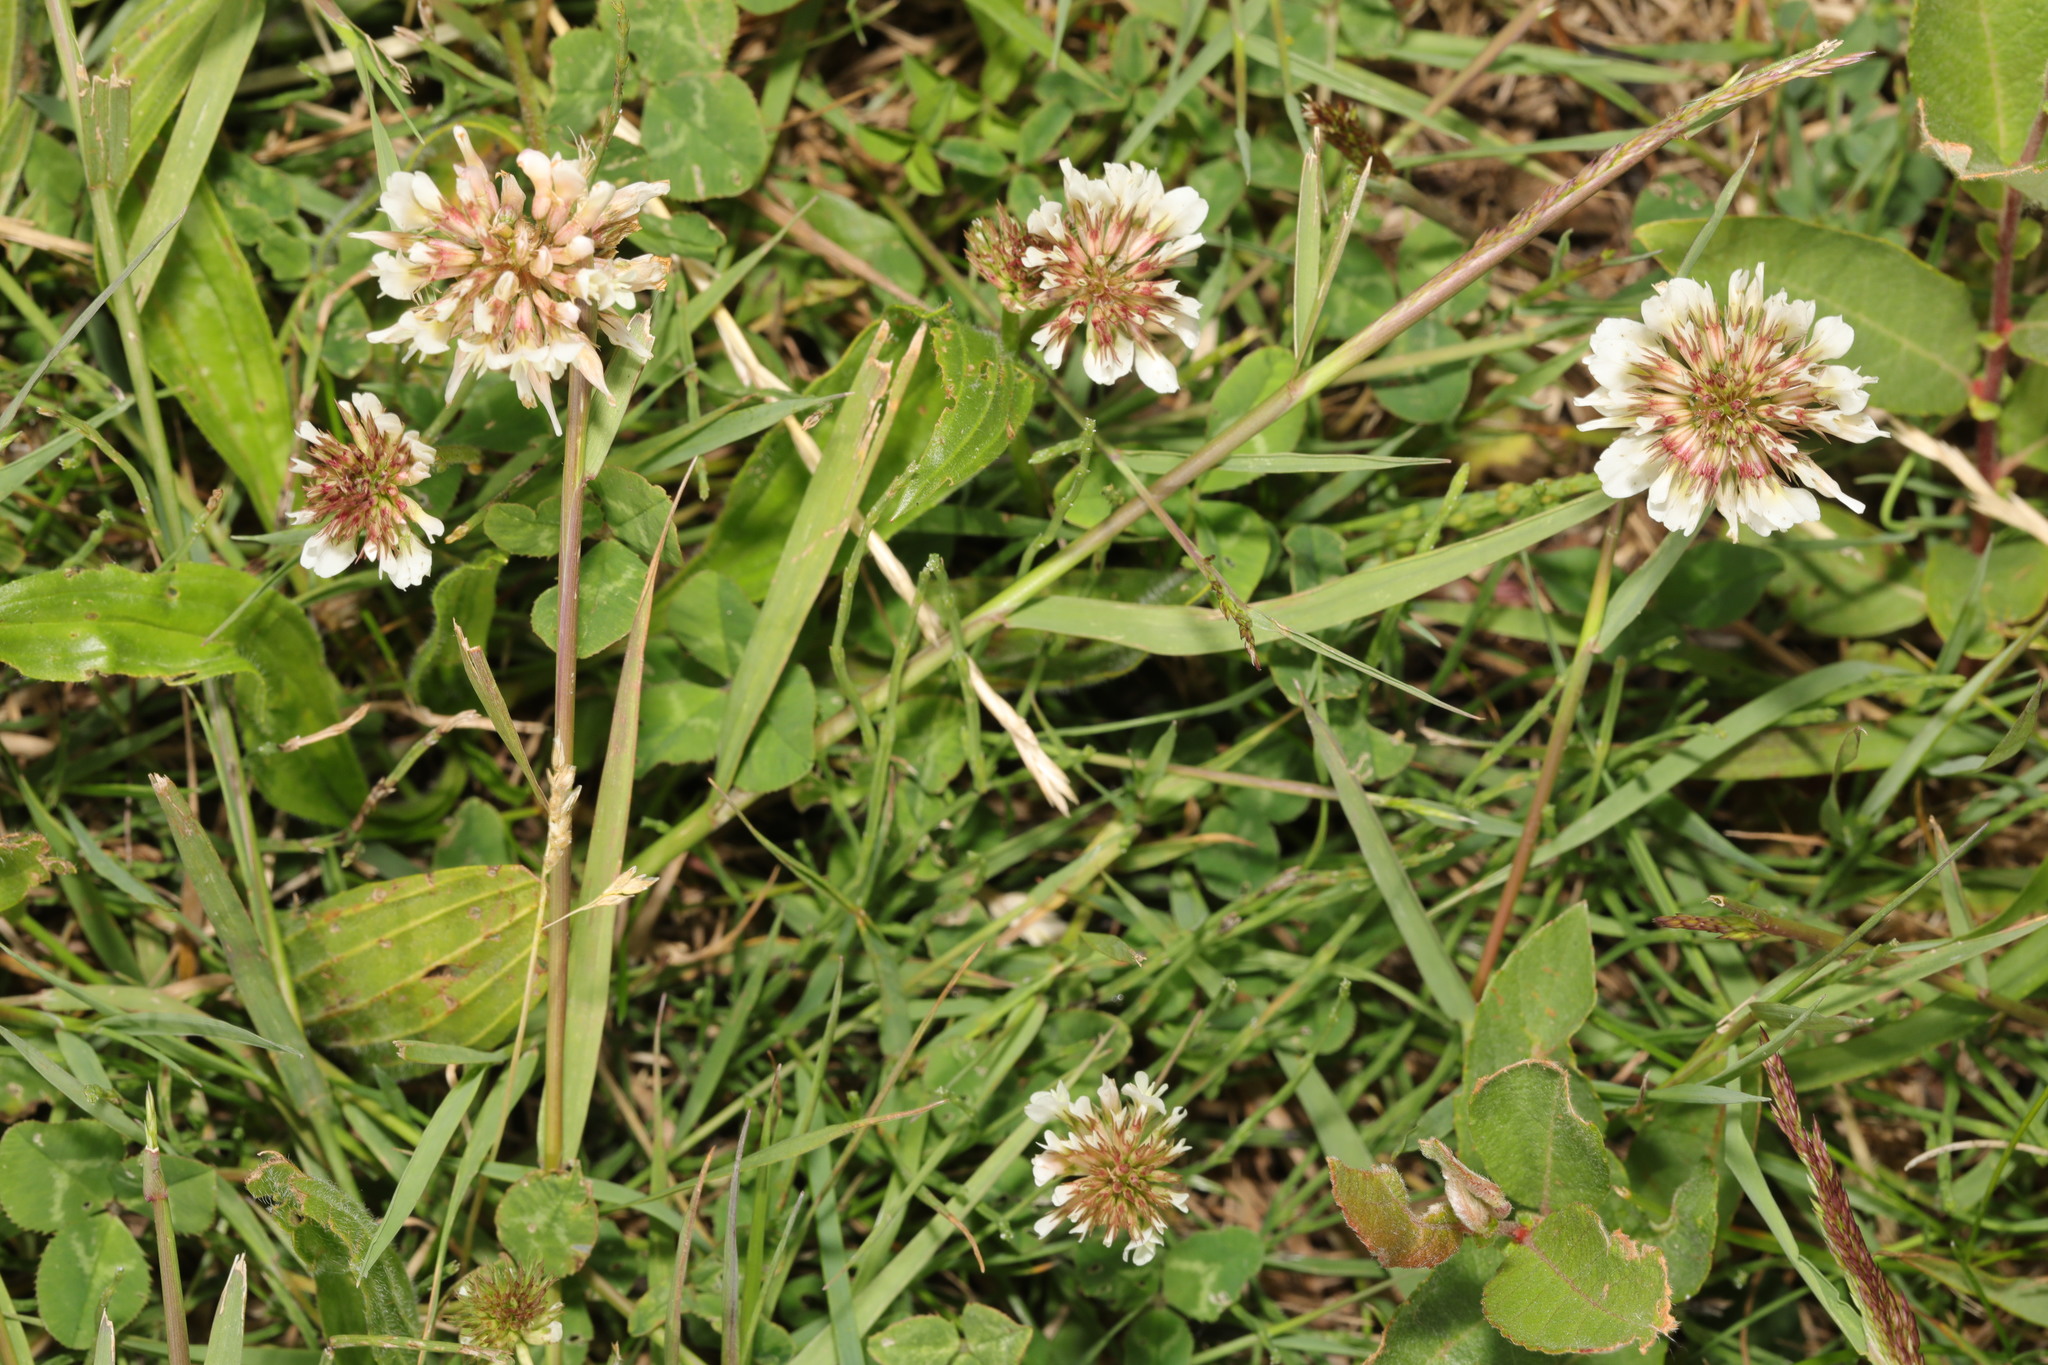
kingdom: Plantae
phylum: Tracheophyta
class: Magnoliopsida
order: Fabales
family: Fabaceae
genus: Trifolium
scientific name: Trifolium repens
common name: White clover
